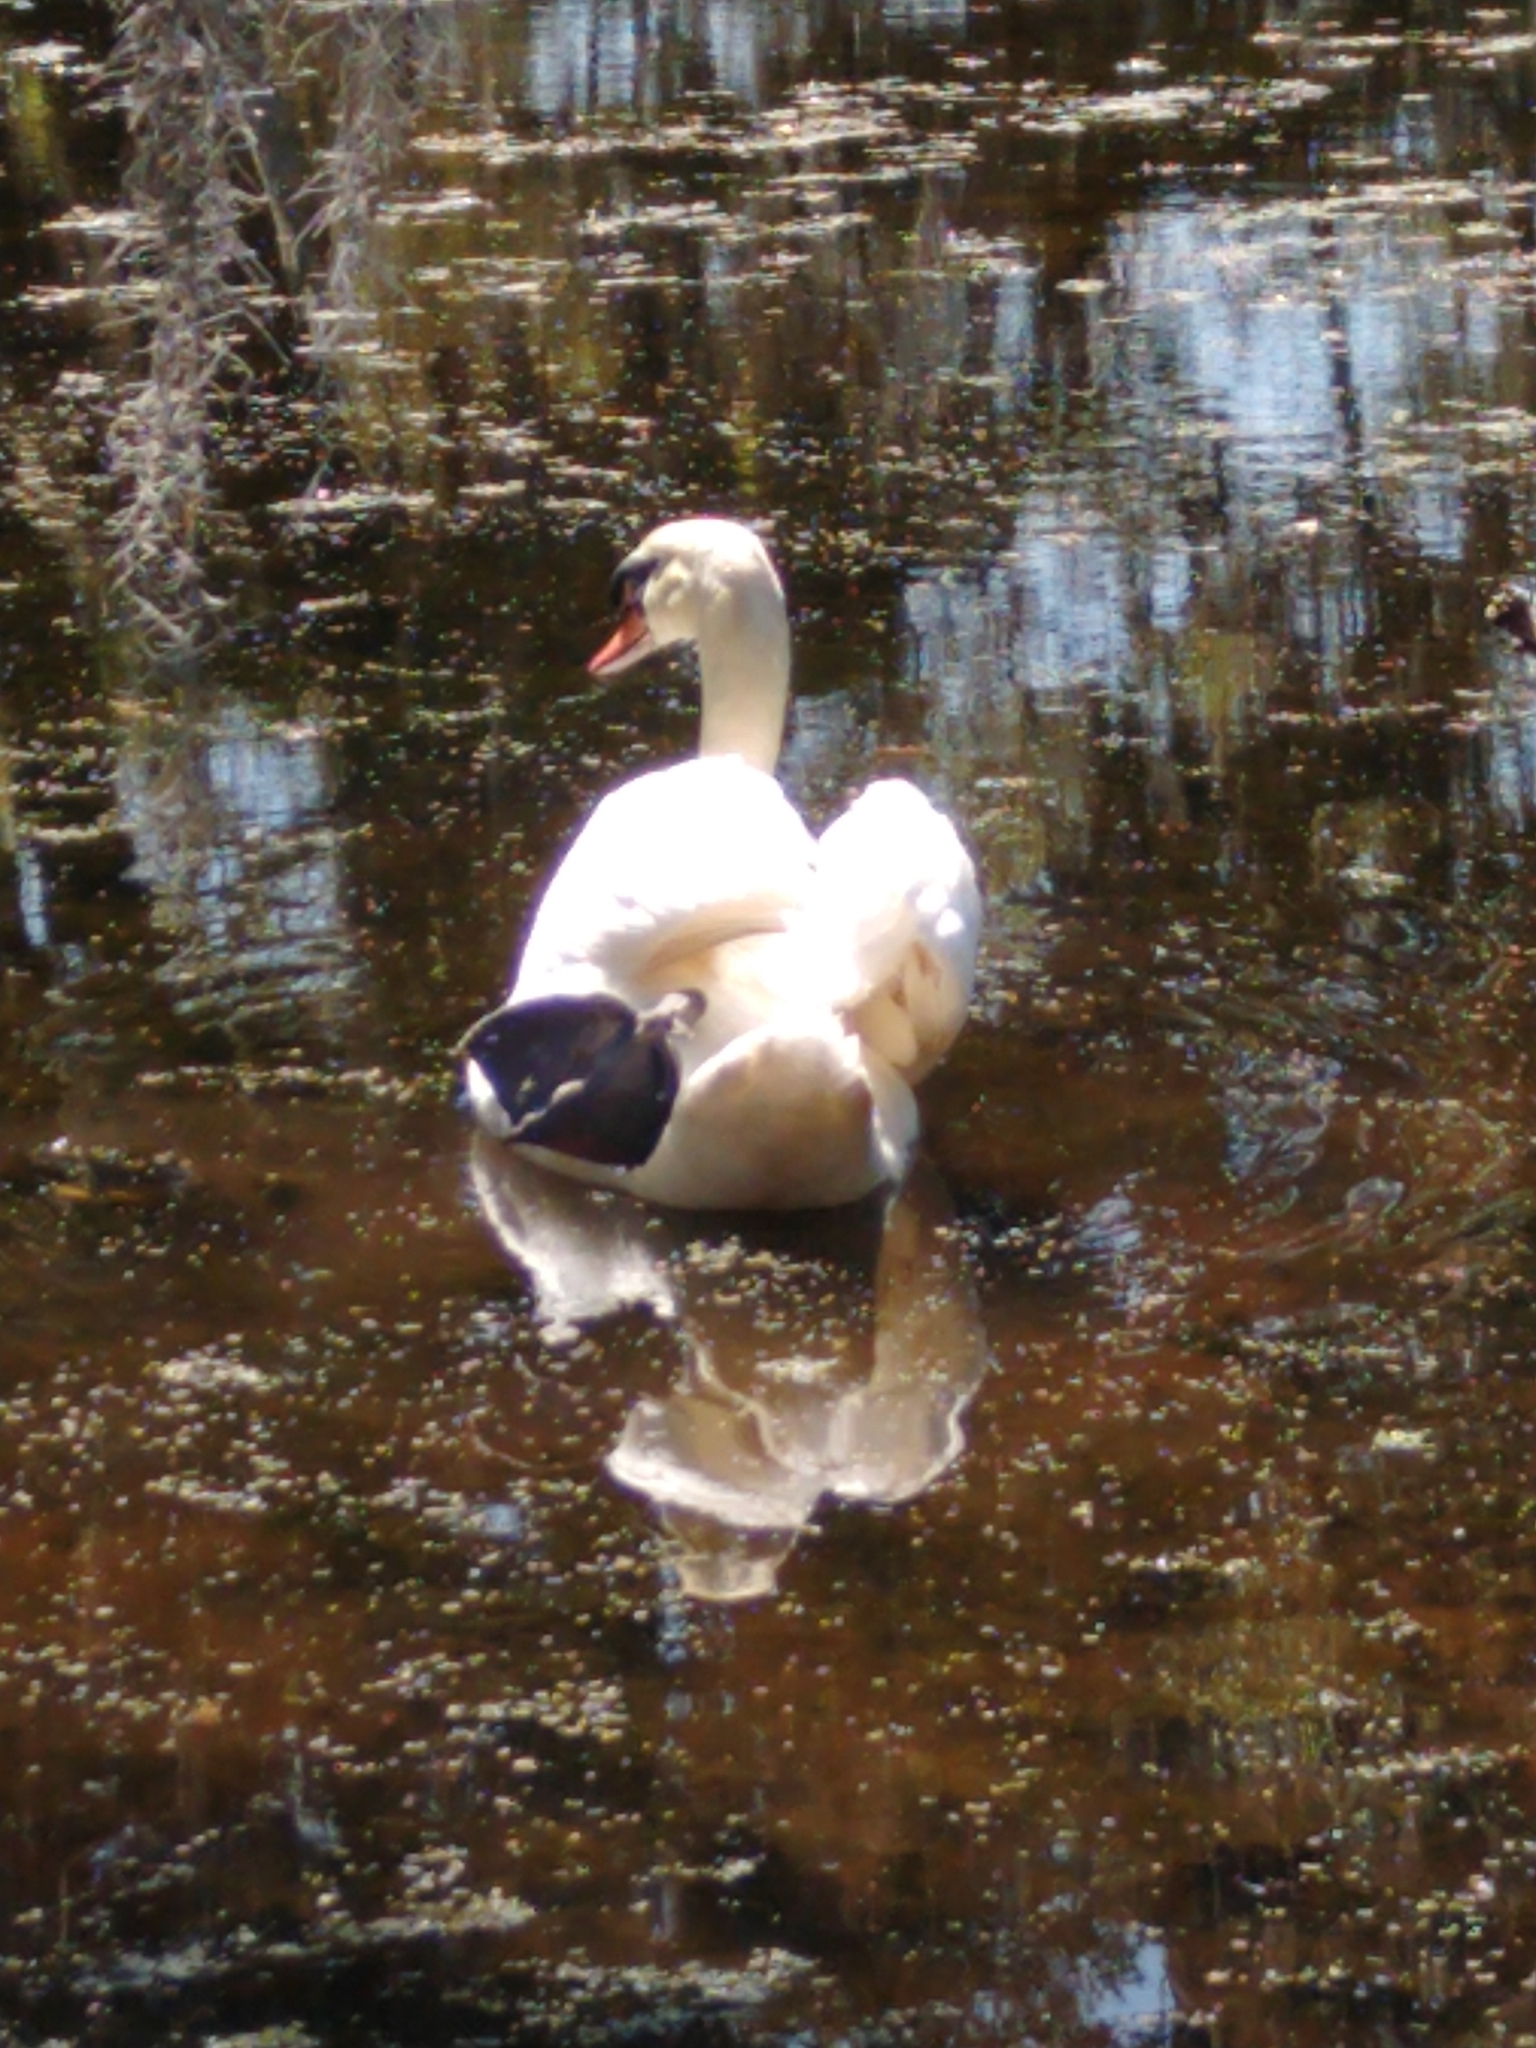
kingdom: Animalia
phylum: Chordata
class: Aves
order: Anseriformes
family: Anatidae
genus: Cygnus
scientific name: Cygnus olor
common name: Mute swan
